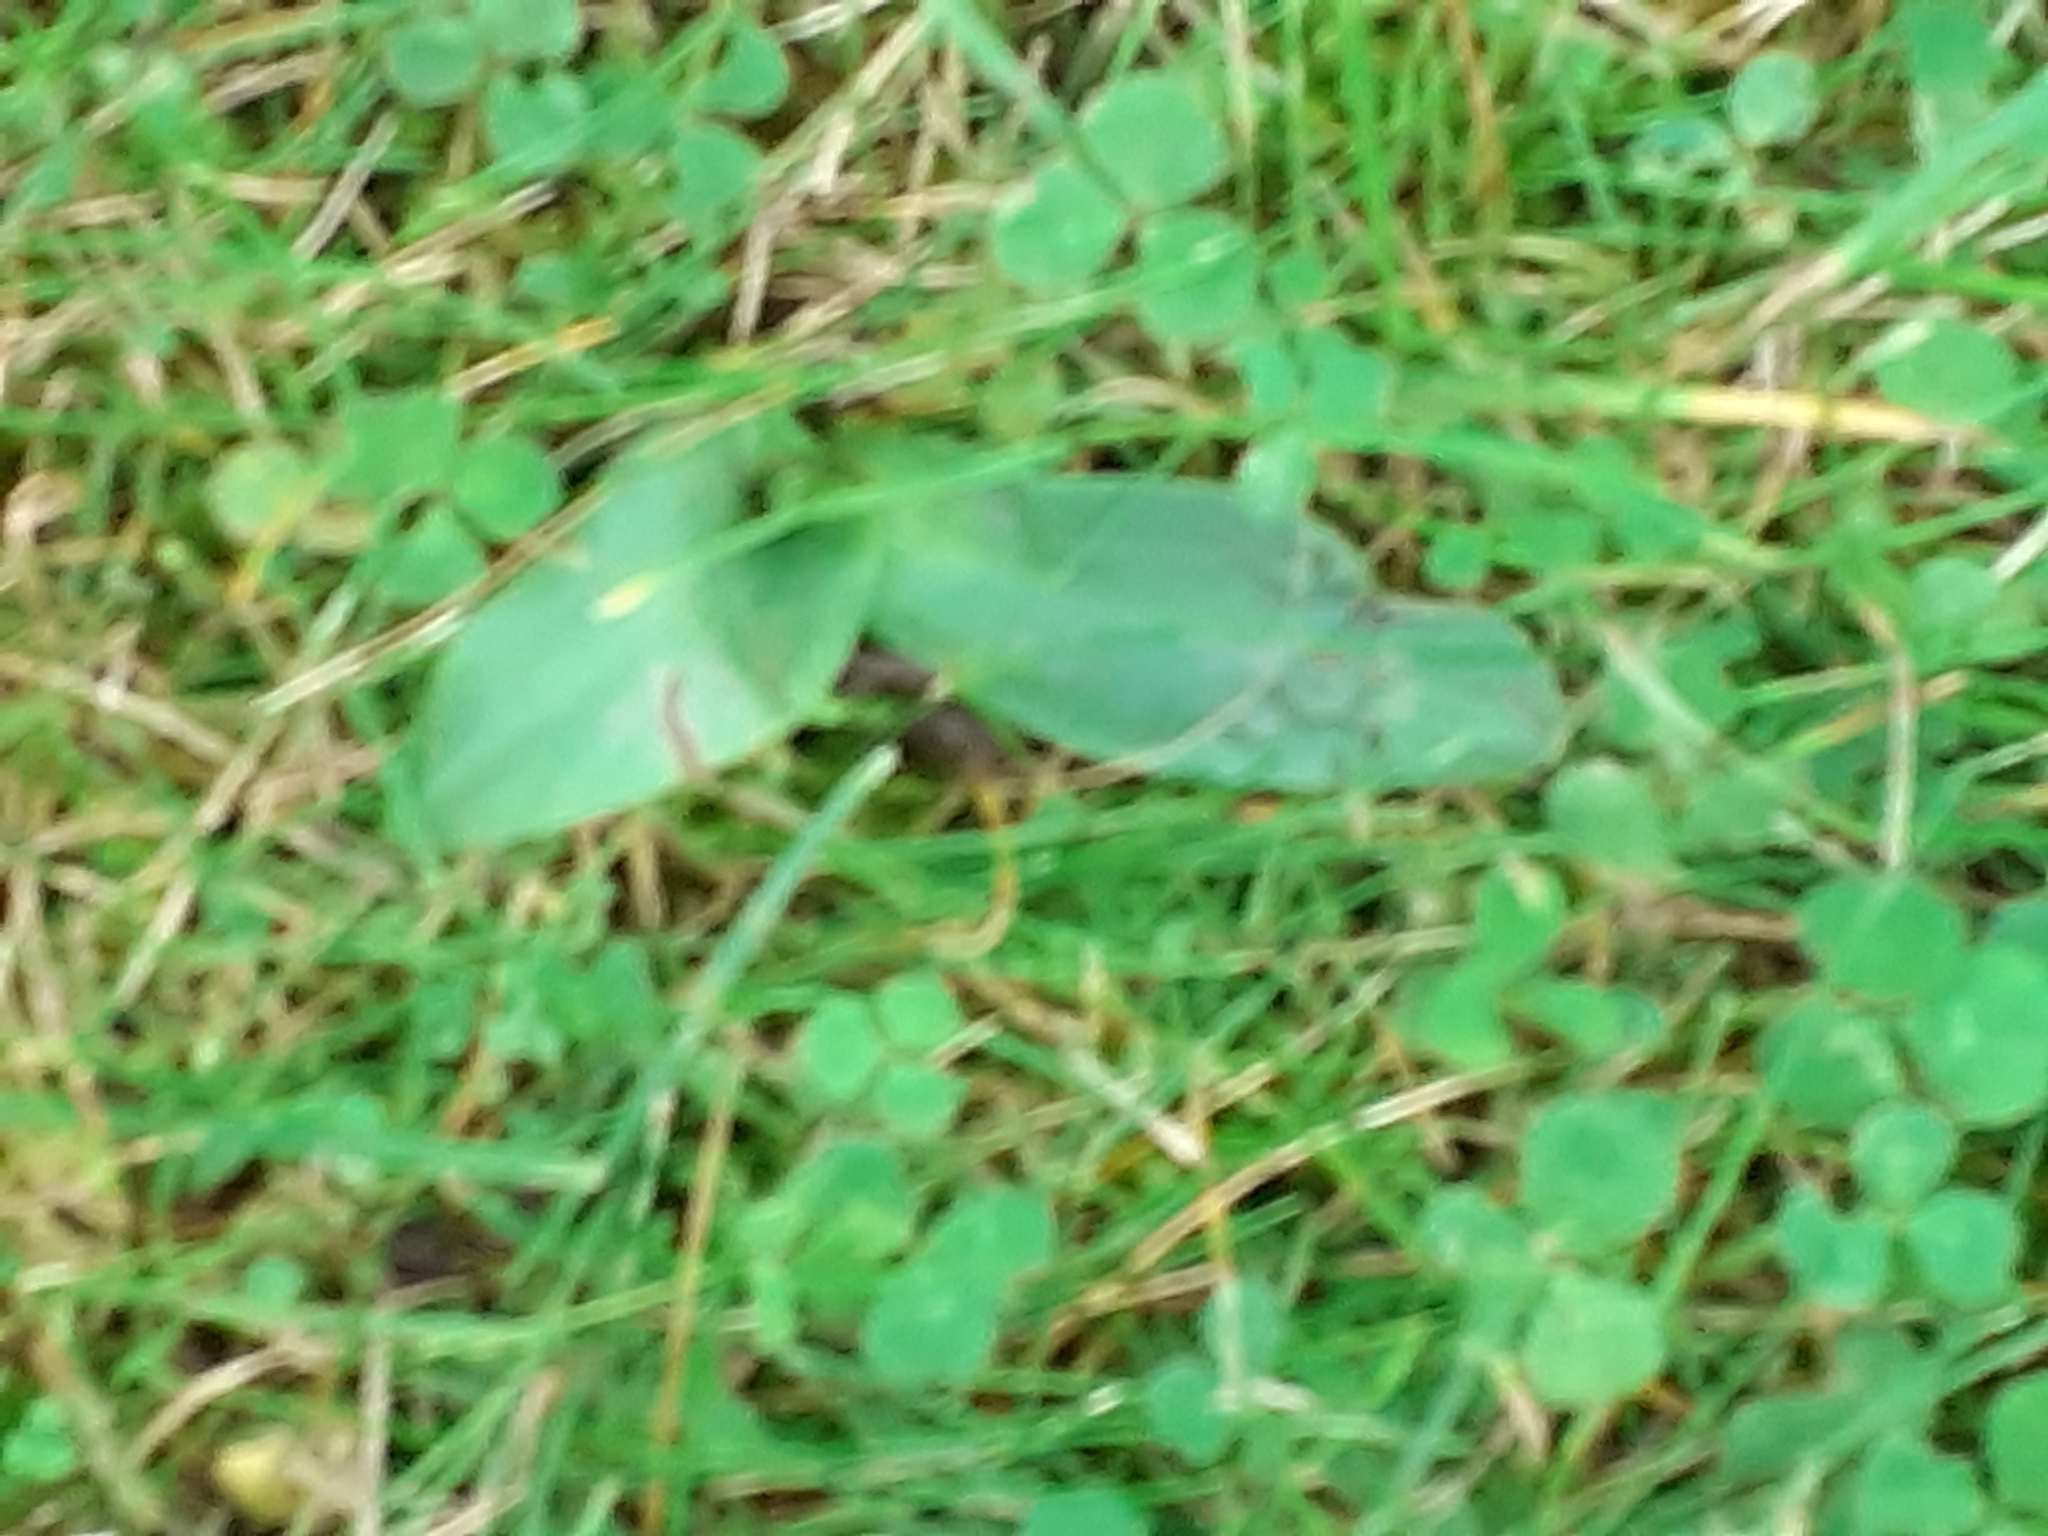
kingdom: Plantae
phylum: Tracheophyta
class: Liliopsida
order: Asparagales
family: Orchidaceae
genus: Ophrys
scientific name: Ophrys apifera
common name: Bee orchid
